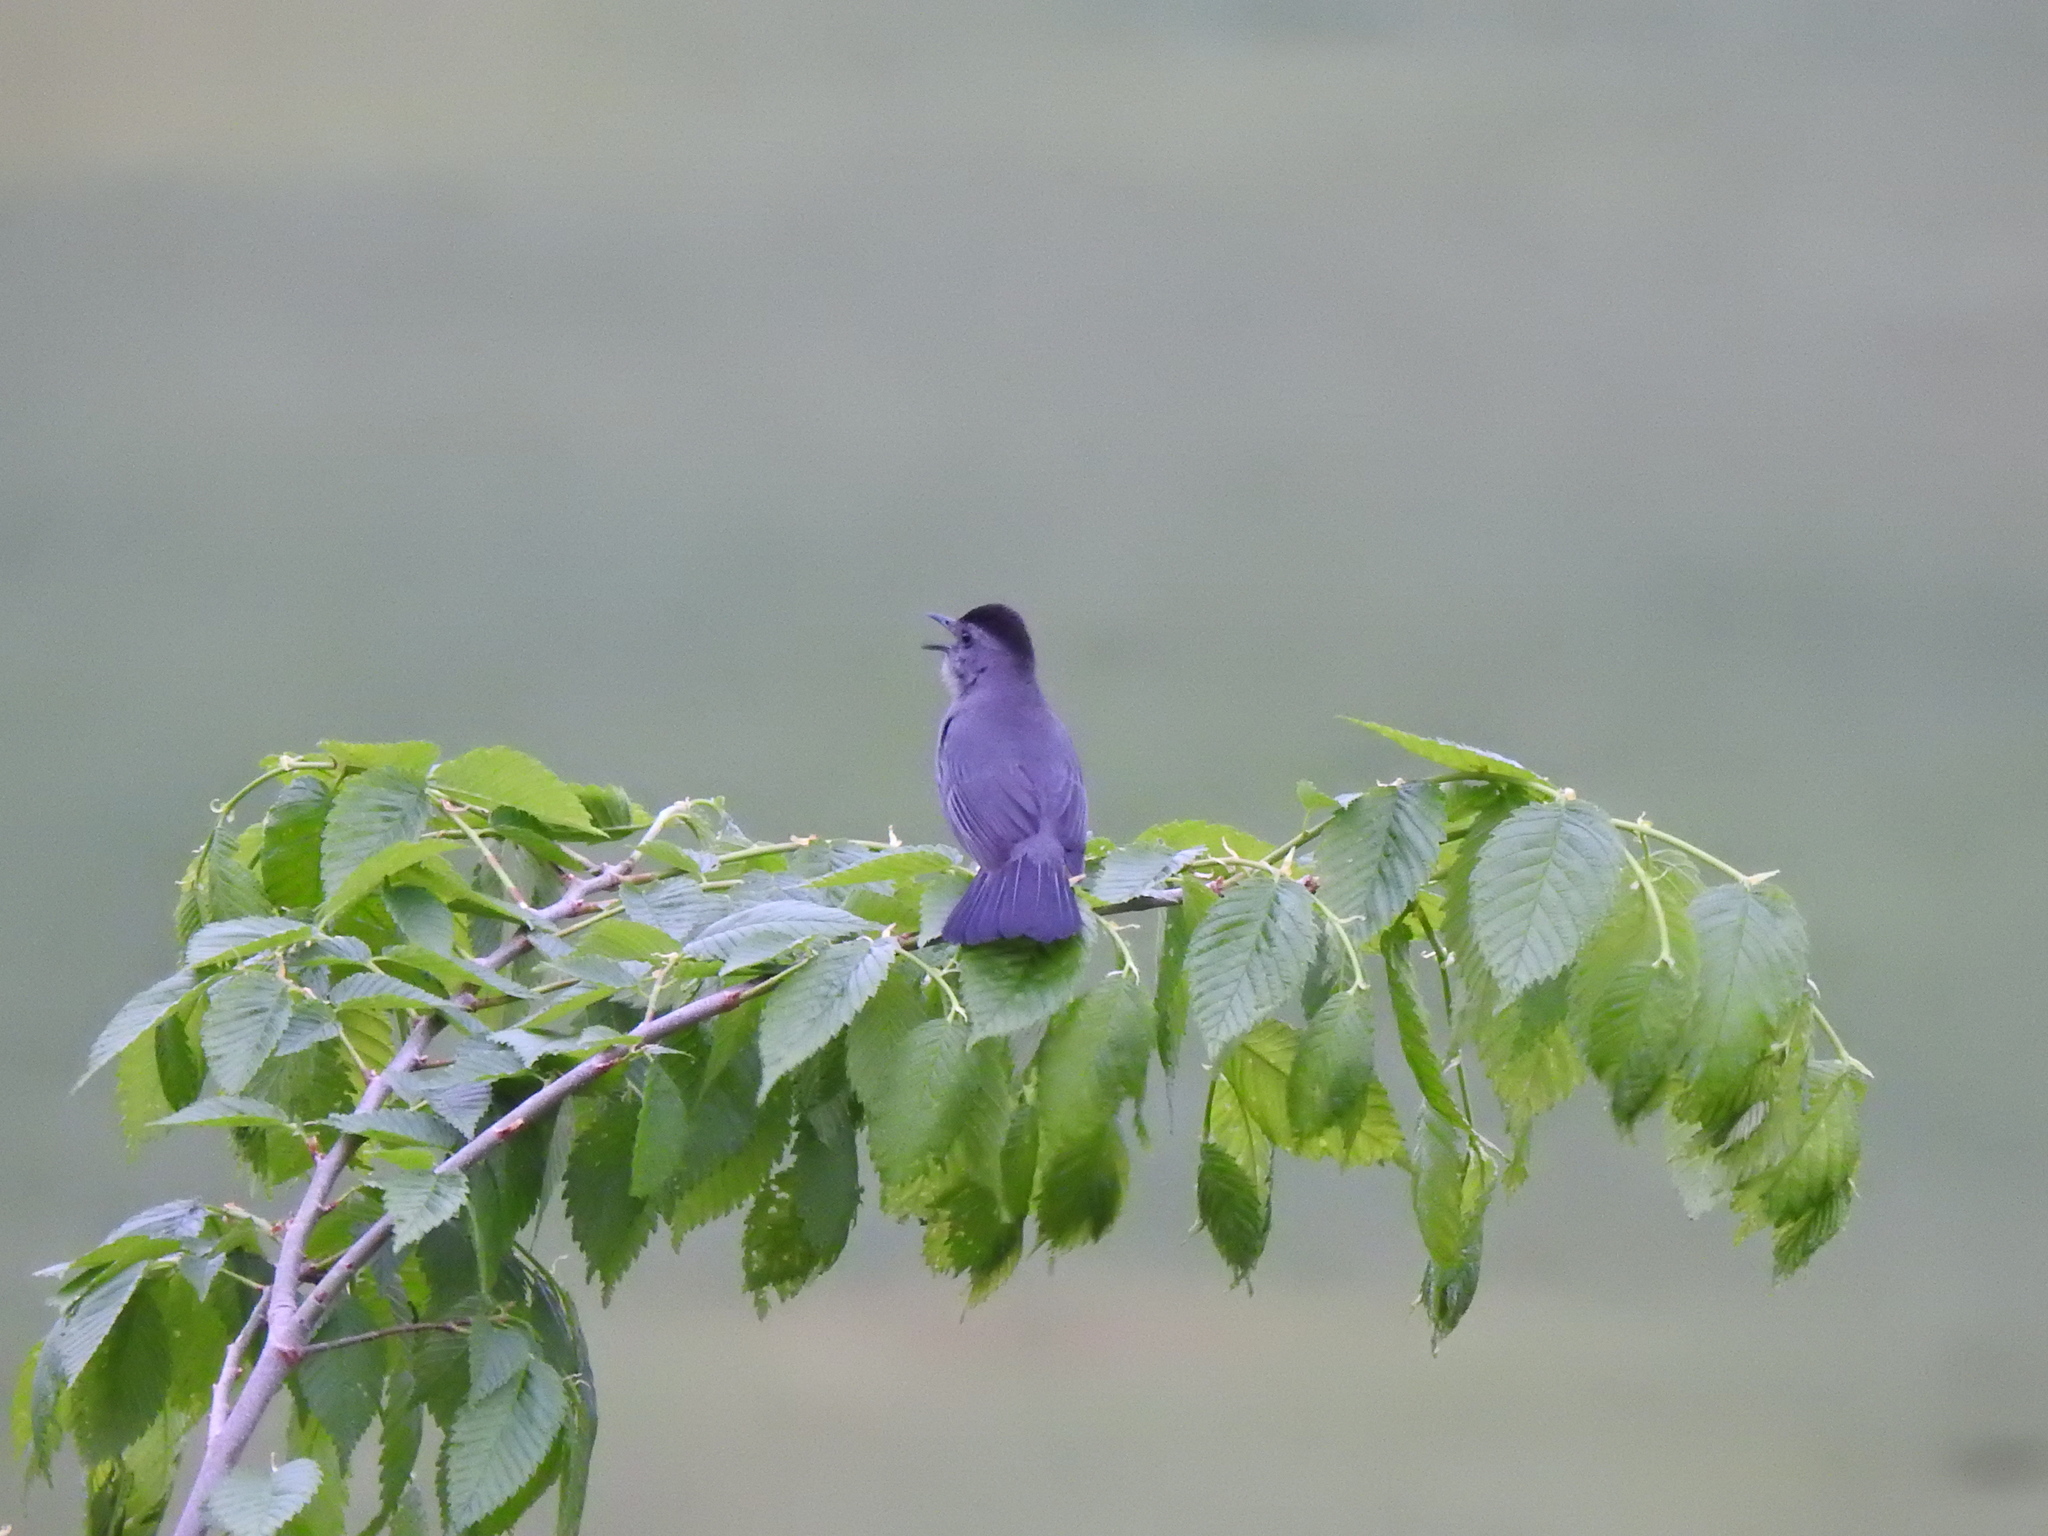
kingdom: Animalia
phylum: Chordata
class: Aves
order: Passeriformes
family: Mimidae
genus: Dumetella
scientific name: Dumetella carolinensis
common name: Gray catbird
